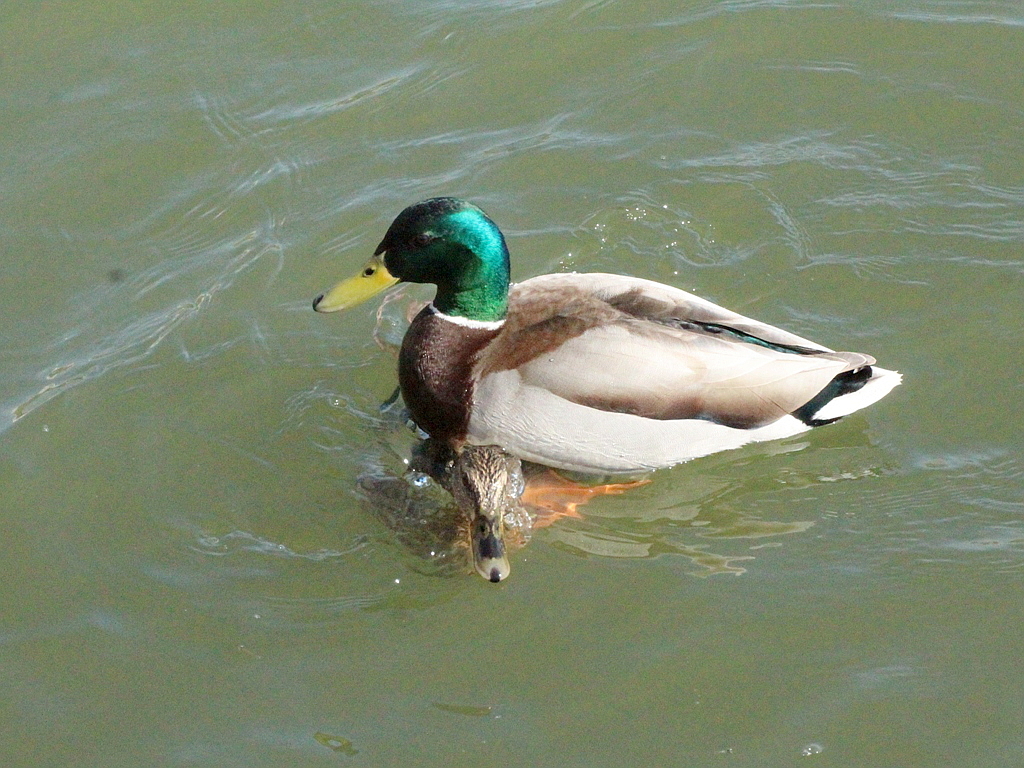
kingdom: Animalia
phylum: Chordata
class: Aves
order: Anseriformes
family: Anatidae
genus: Anas
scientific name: Anas platyrhynchos
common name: Mallard
